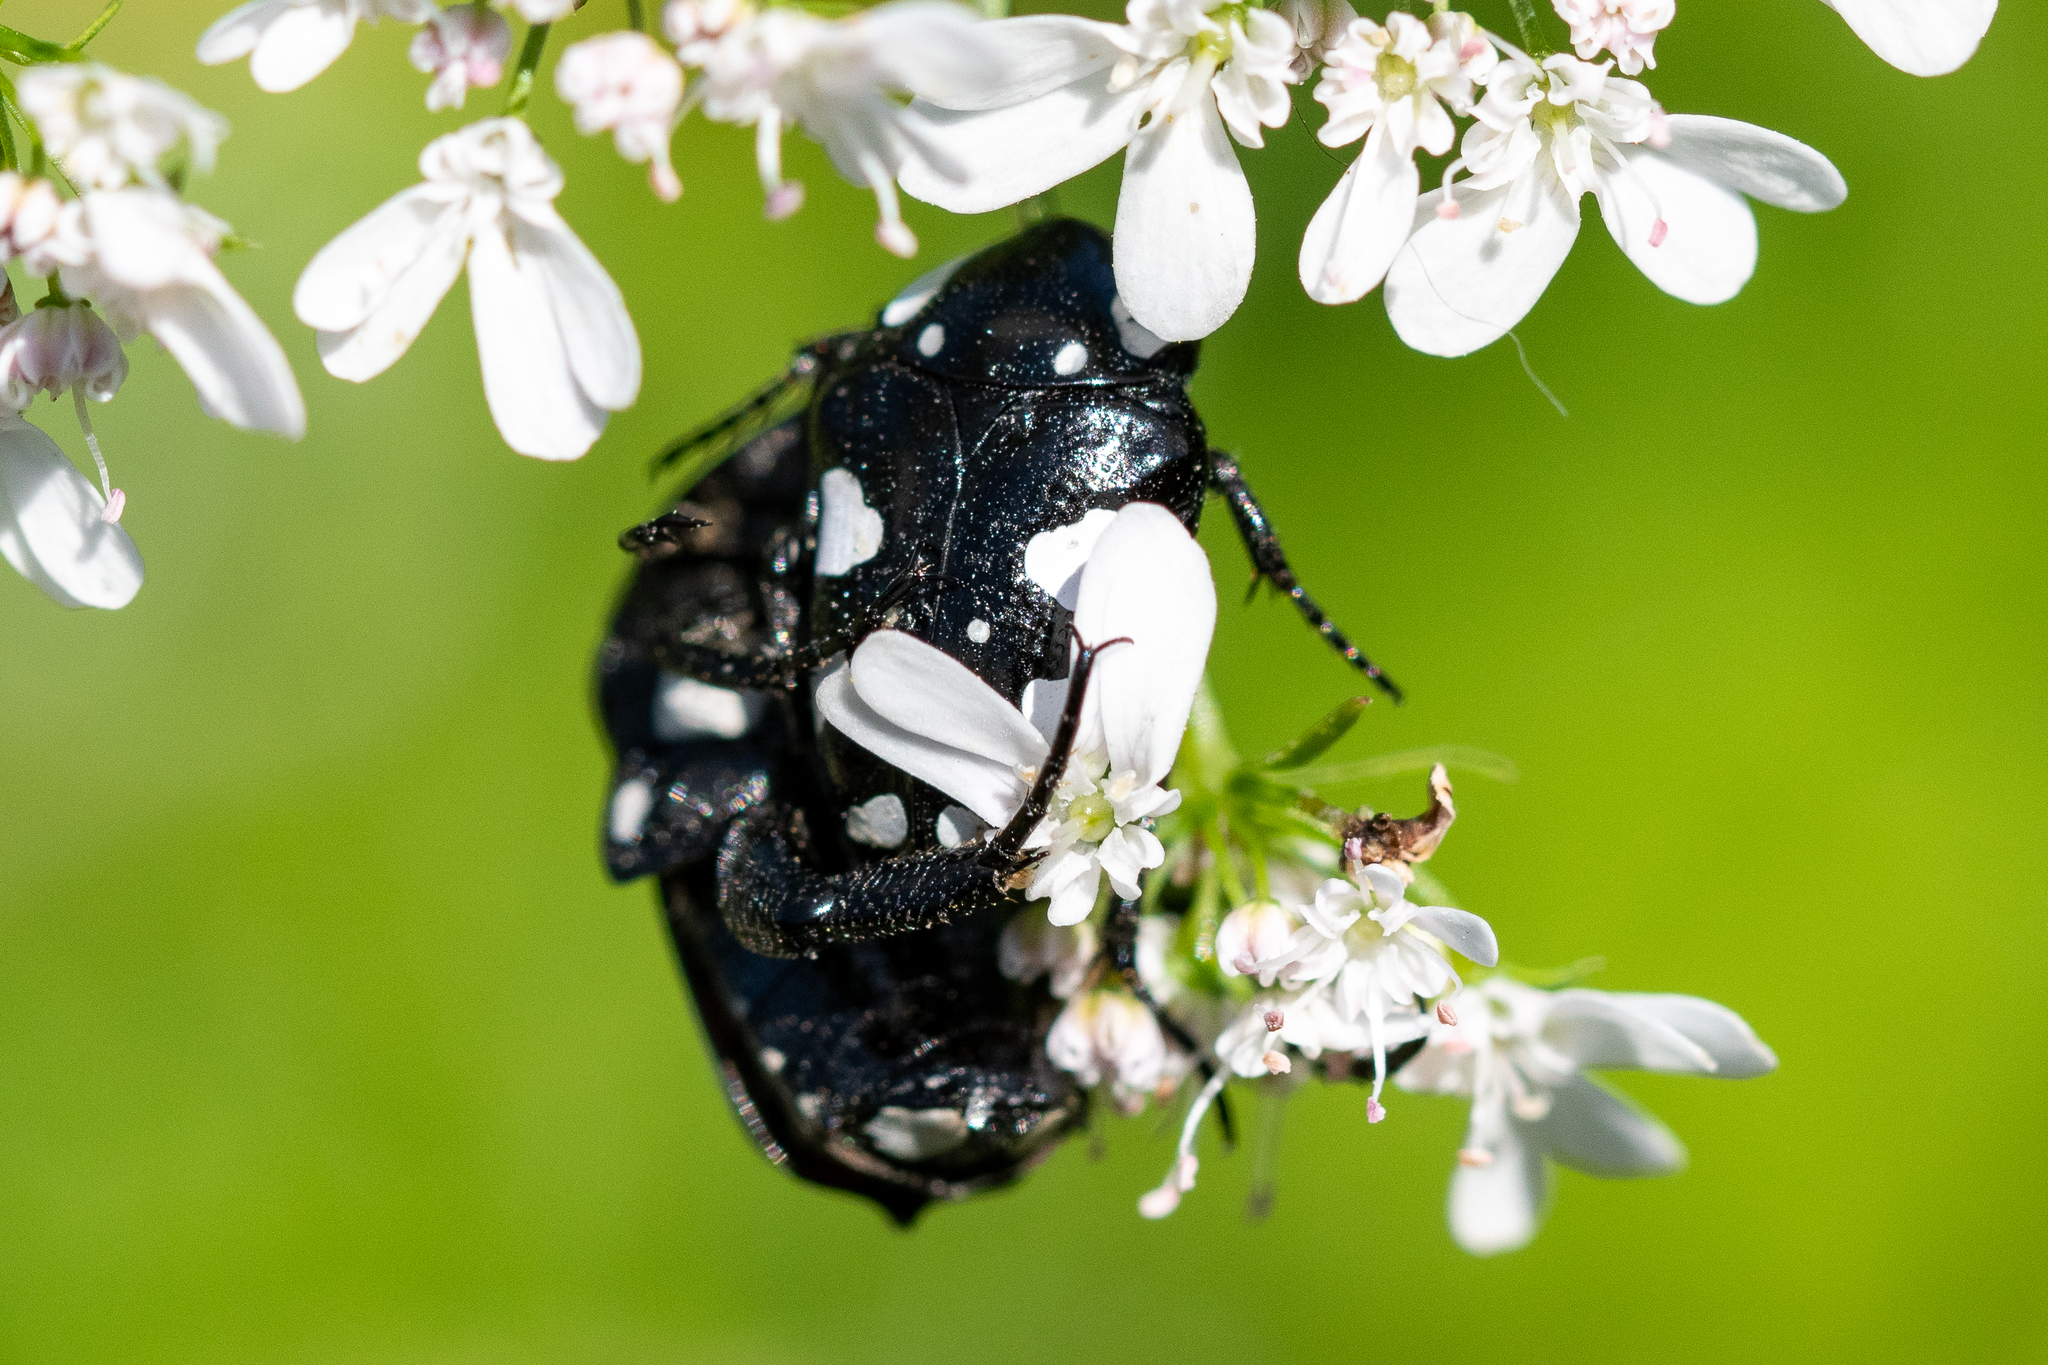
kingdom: Animalia
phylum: Arthropoda
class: Insecta
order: Coleoptera
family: Scarabaeidae
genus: Mausoleopsis
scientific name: Mausoleopsis amabilis
